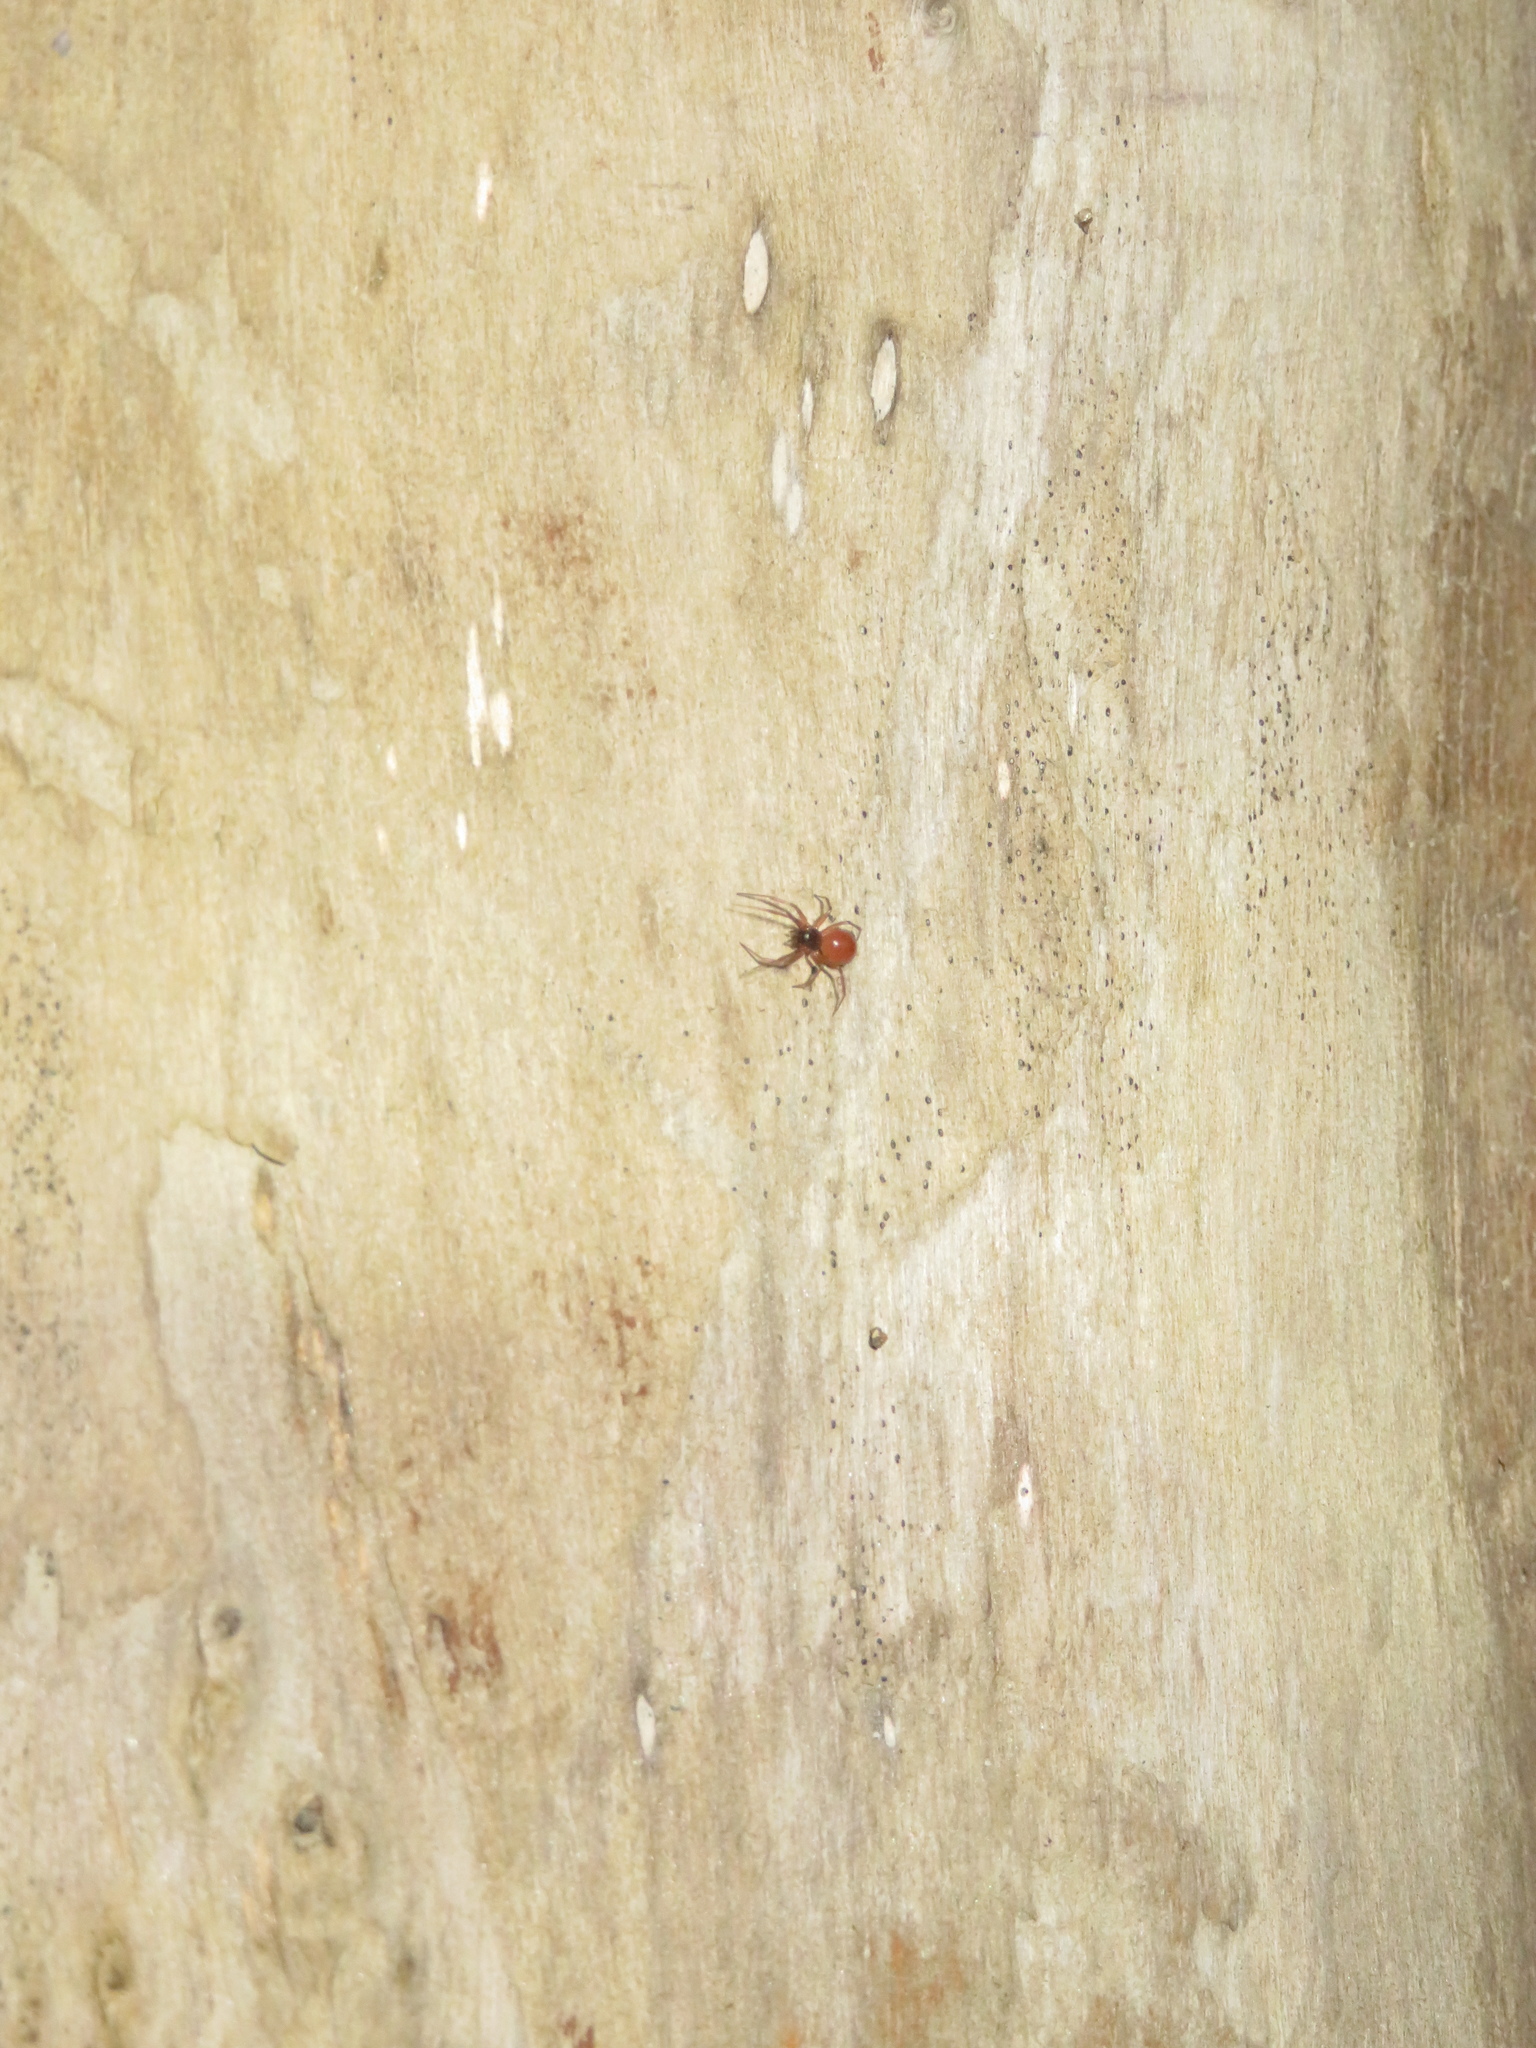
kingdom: Animalia
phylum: Arthropoda
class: Arachnida
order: Araneae
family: Linyphiidae
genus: Ostearius
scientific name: Ostearius melanopygius
